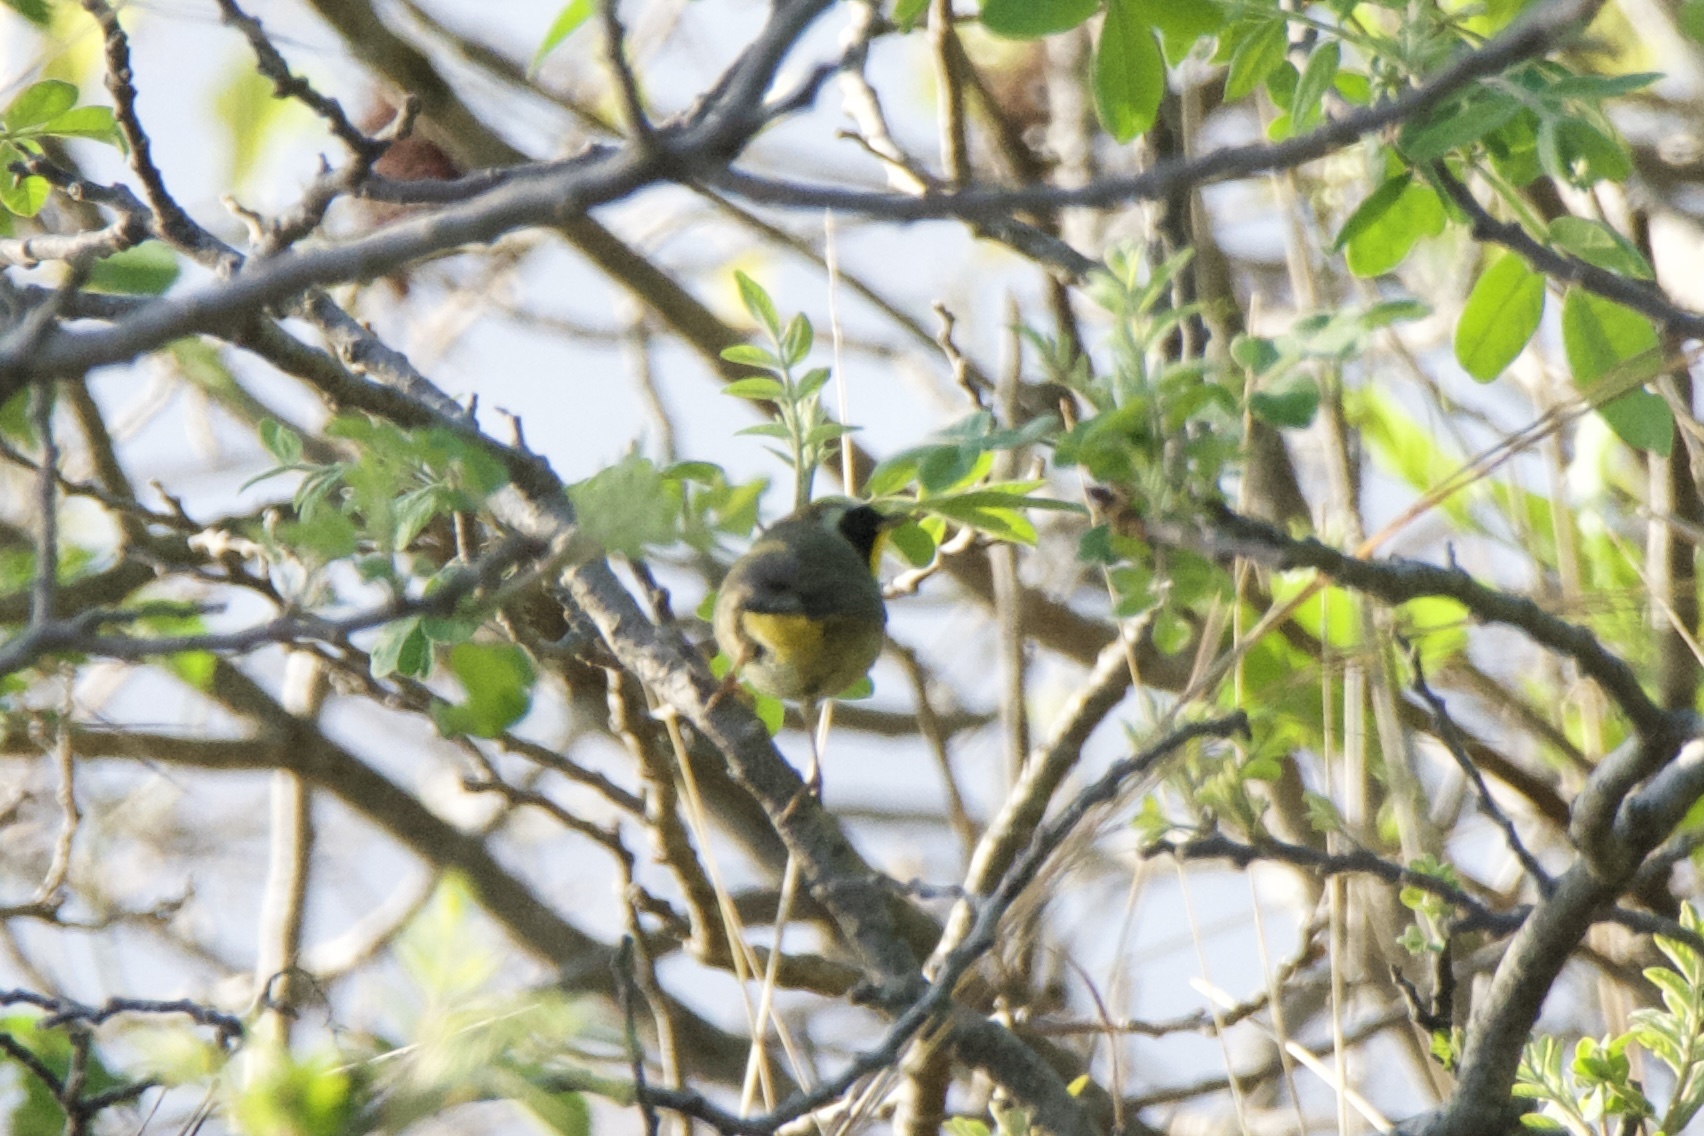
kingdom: Animalia
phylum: Chordata
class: Aves
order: Passeriformes
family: Parulidae
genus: Geothlypis
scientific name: Geothlypis trichas
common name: Common yellowthroat
